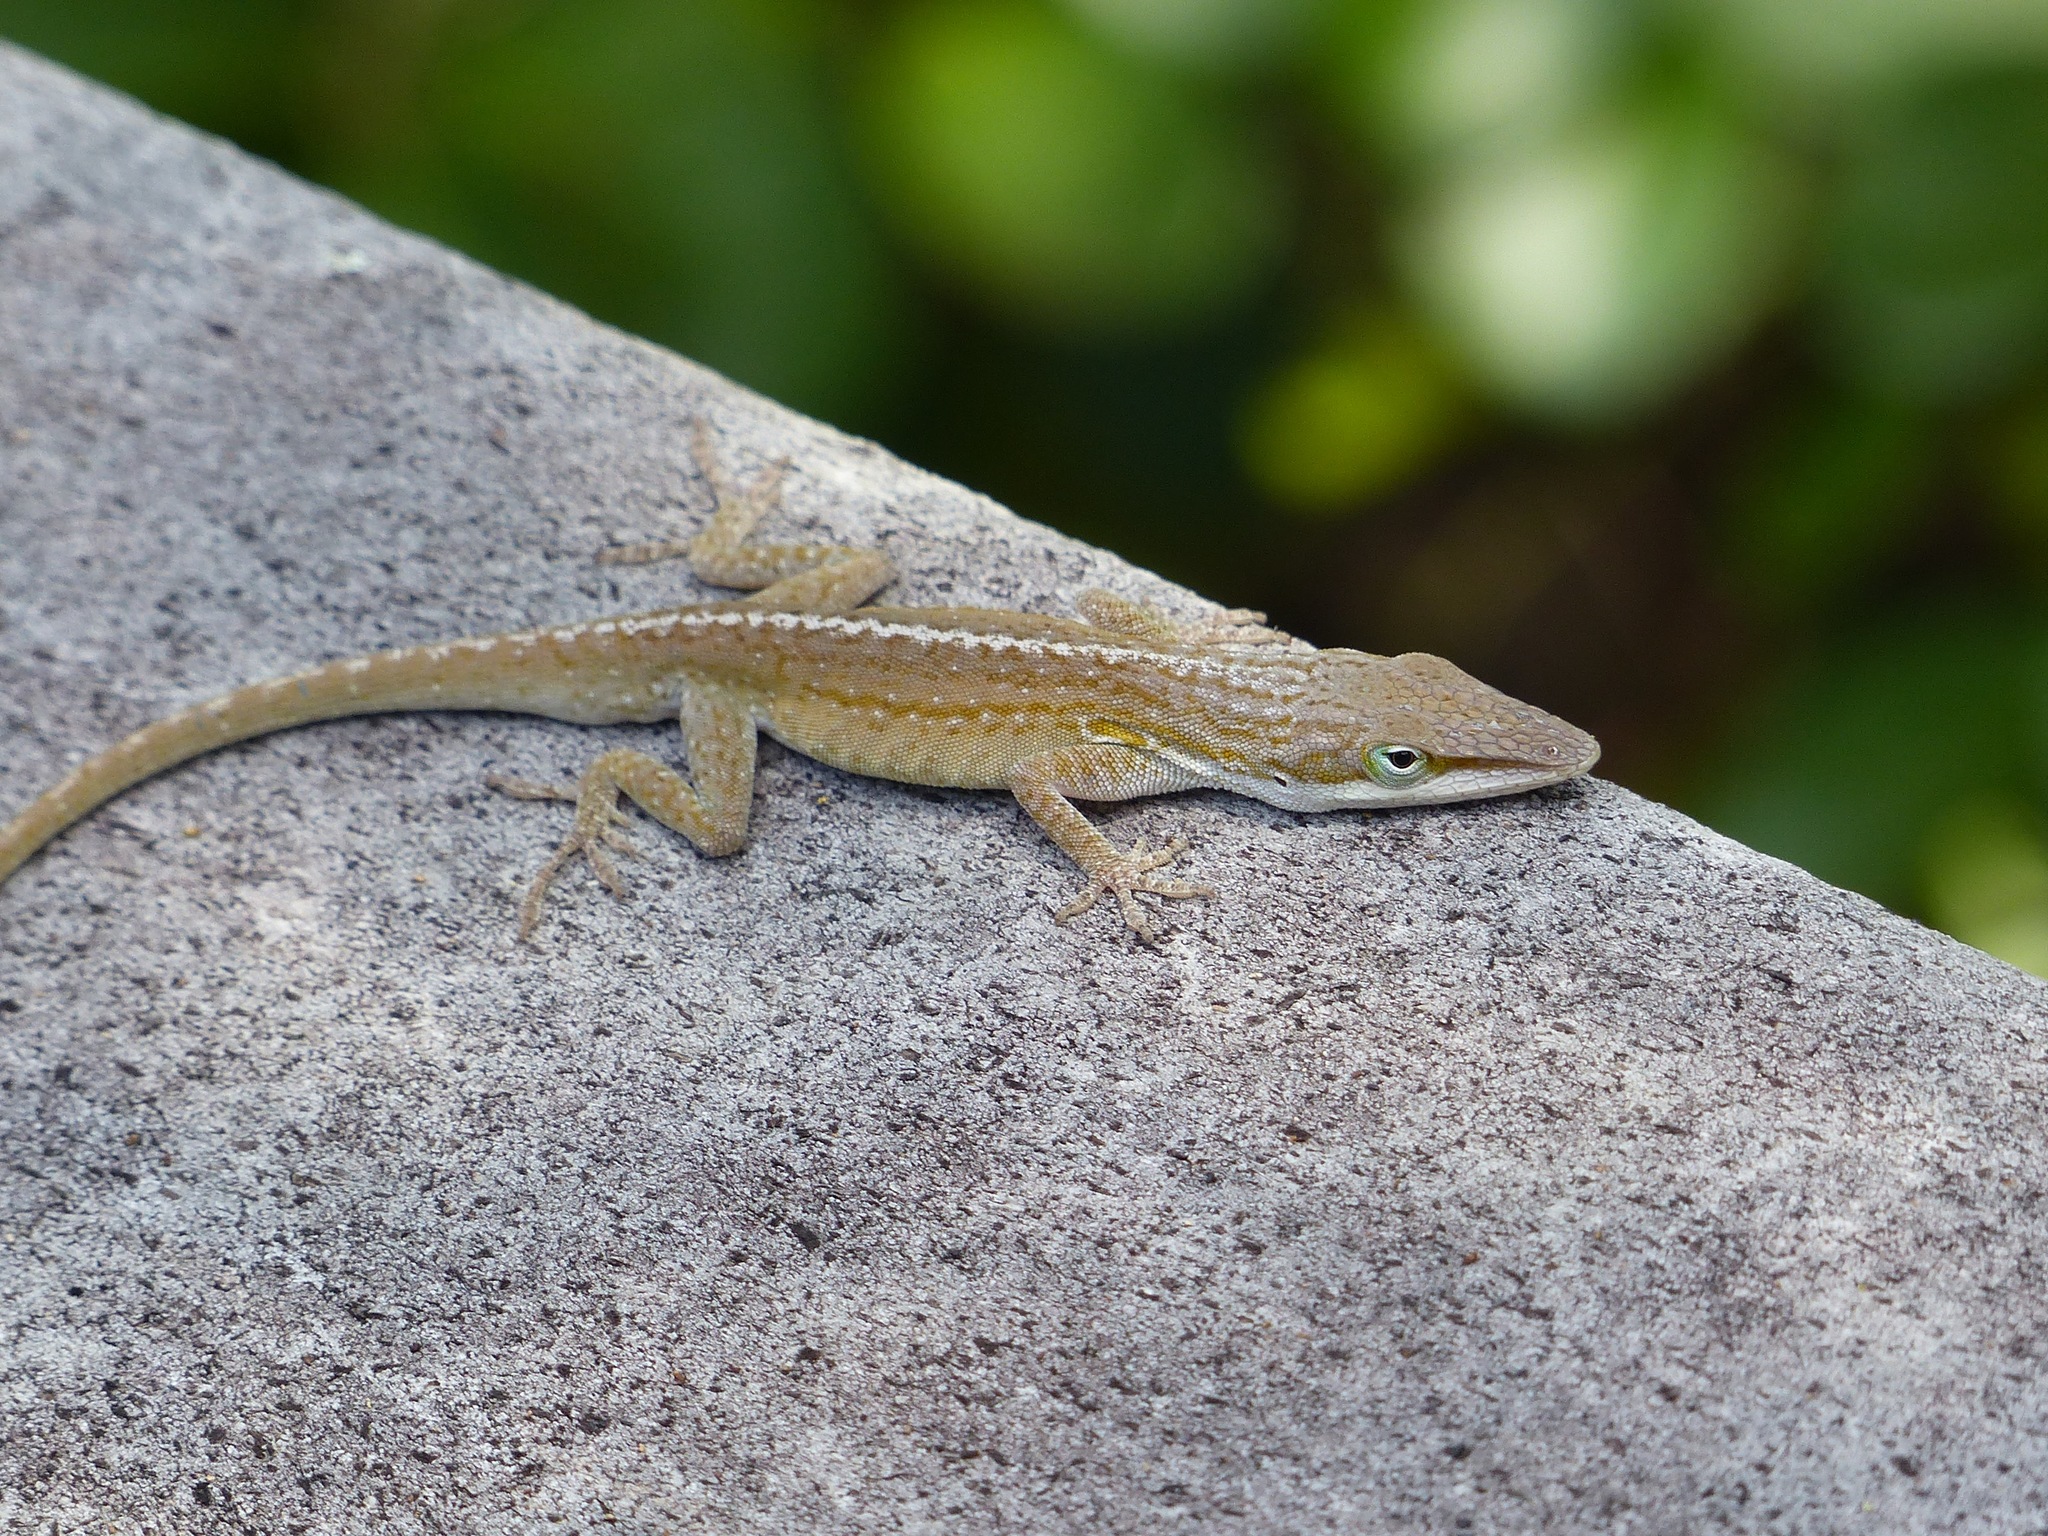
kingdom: Animalia
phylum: Chordata
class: Squamata
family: Dactyloidae
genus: Anolis
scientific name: Anolis carolinensis
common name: Green anole
